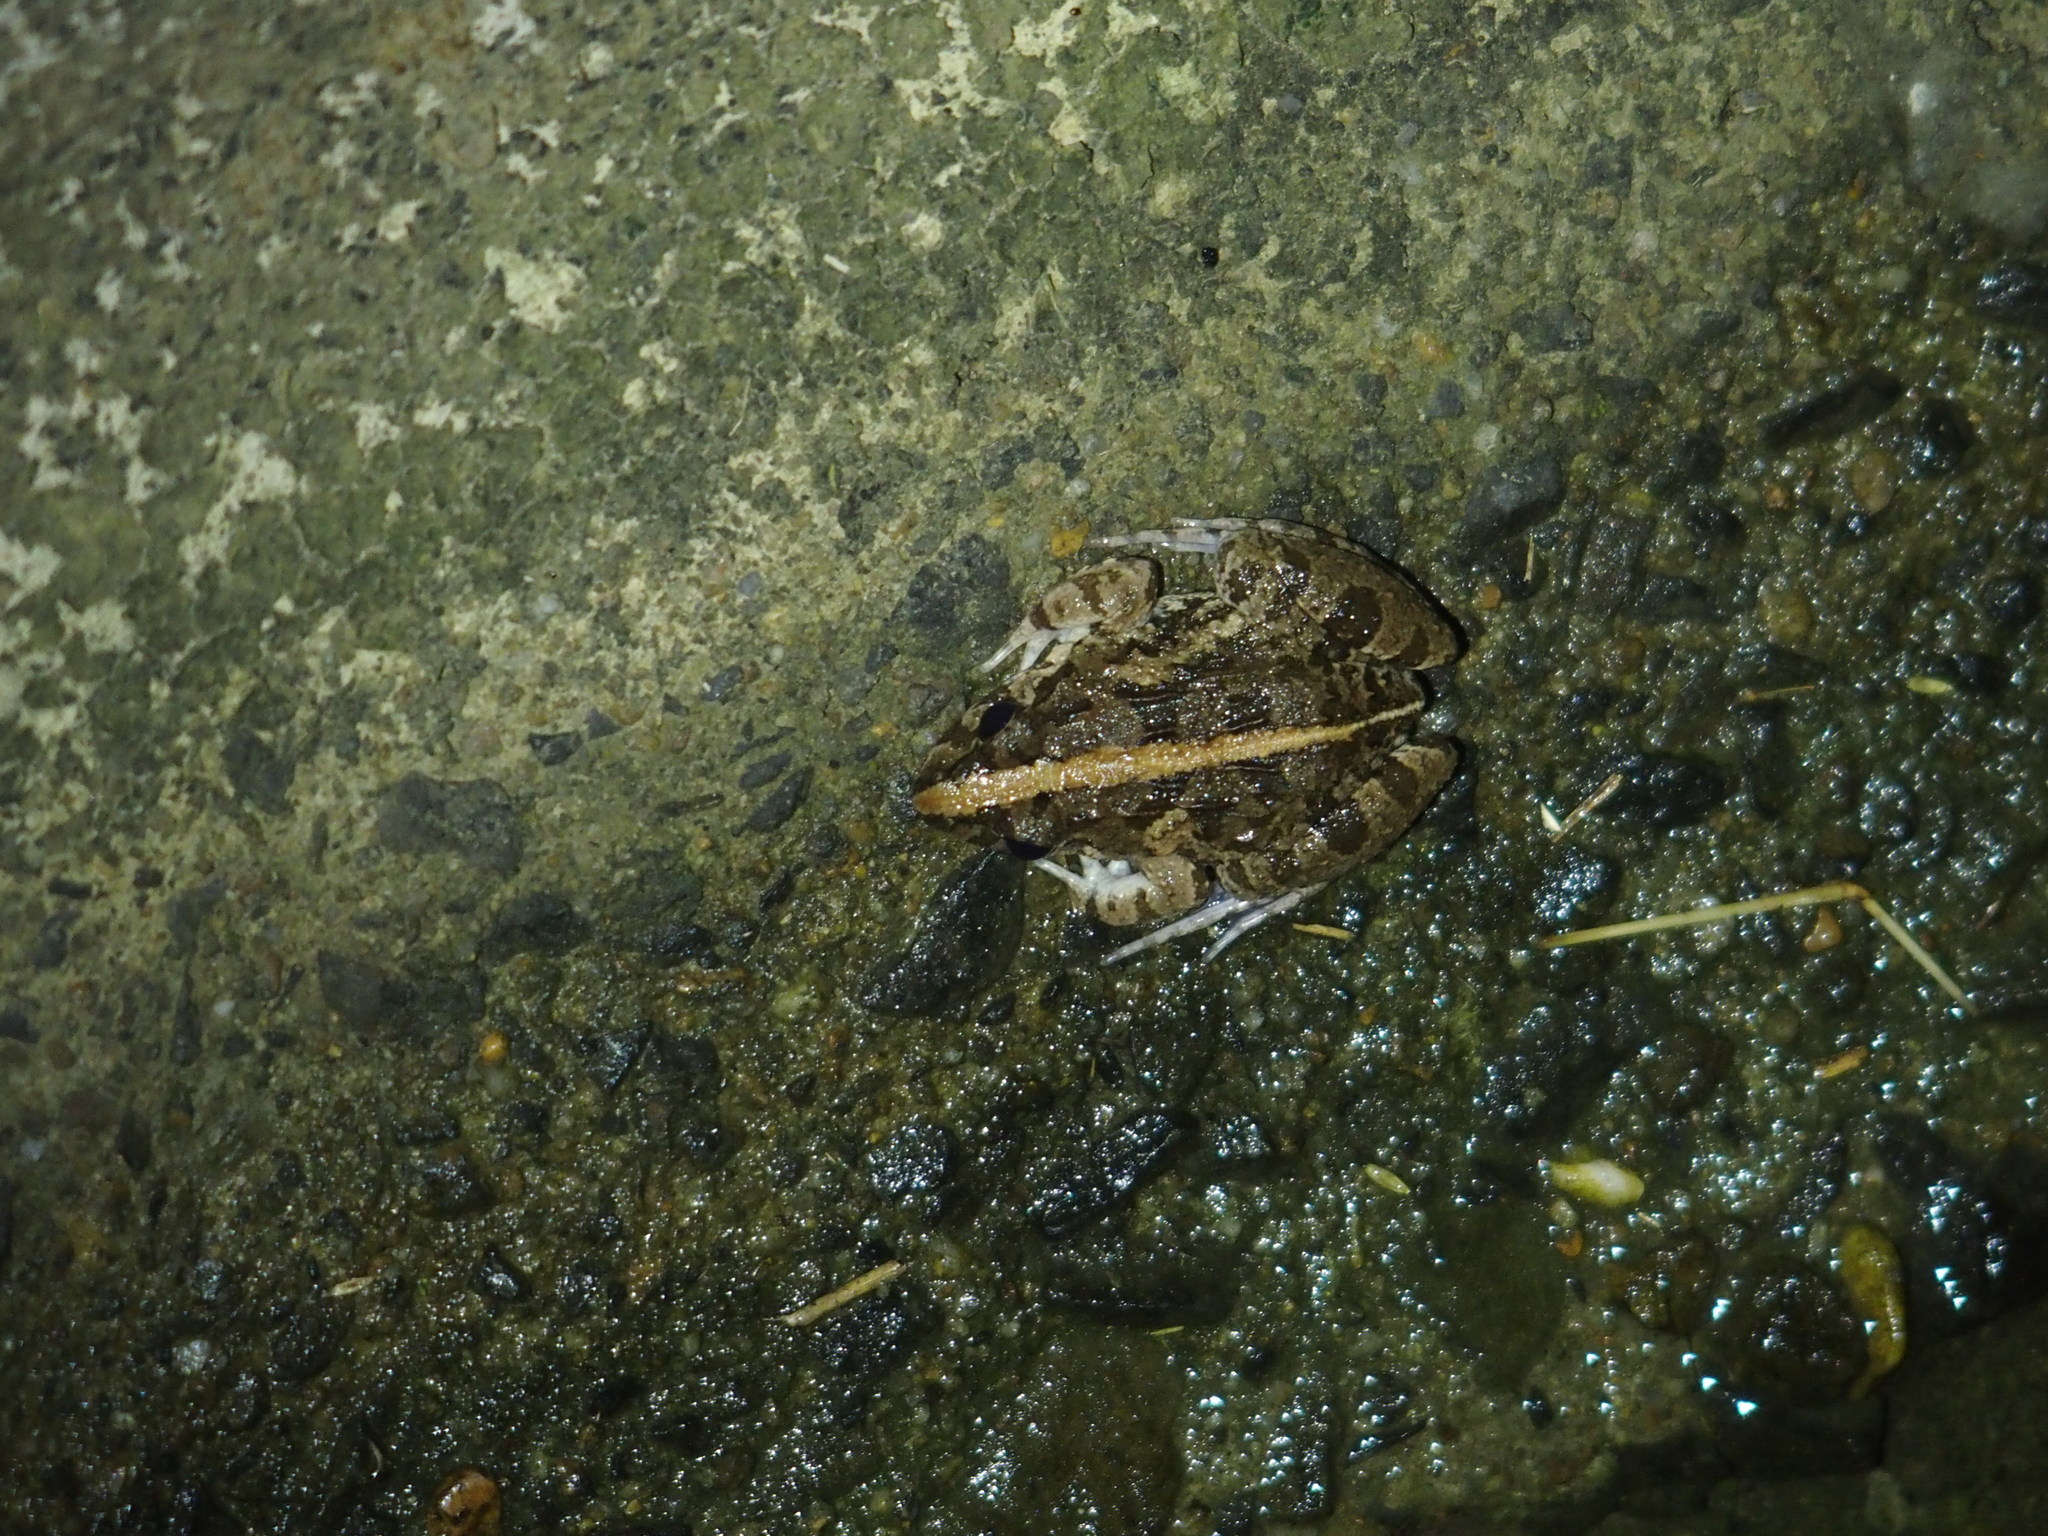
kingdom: Animalia
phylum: Chordata
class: Amphibia
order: Anura
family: Dicroglossidae
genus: Fejervarya
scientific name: Fejervarya limnocharis
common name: Asian grass frog/common pond frog/field frog/grass frog/indian rice frog
